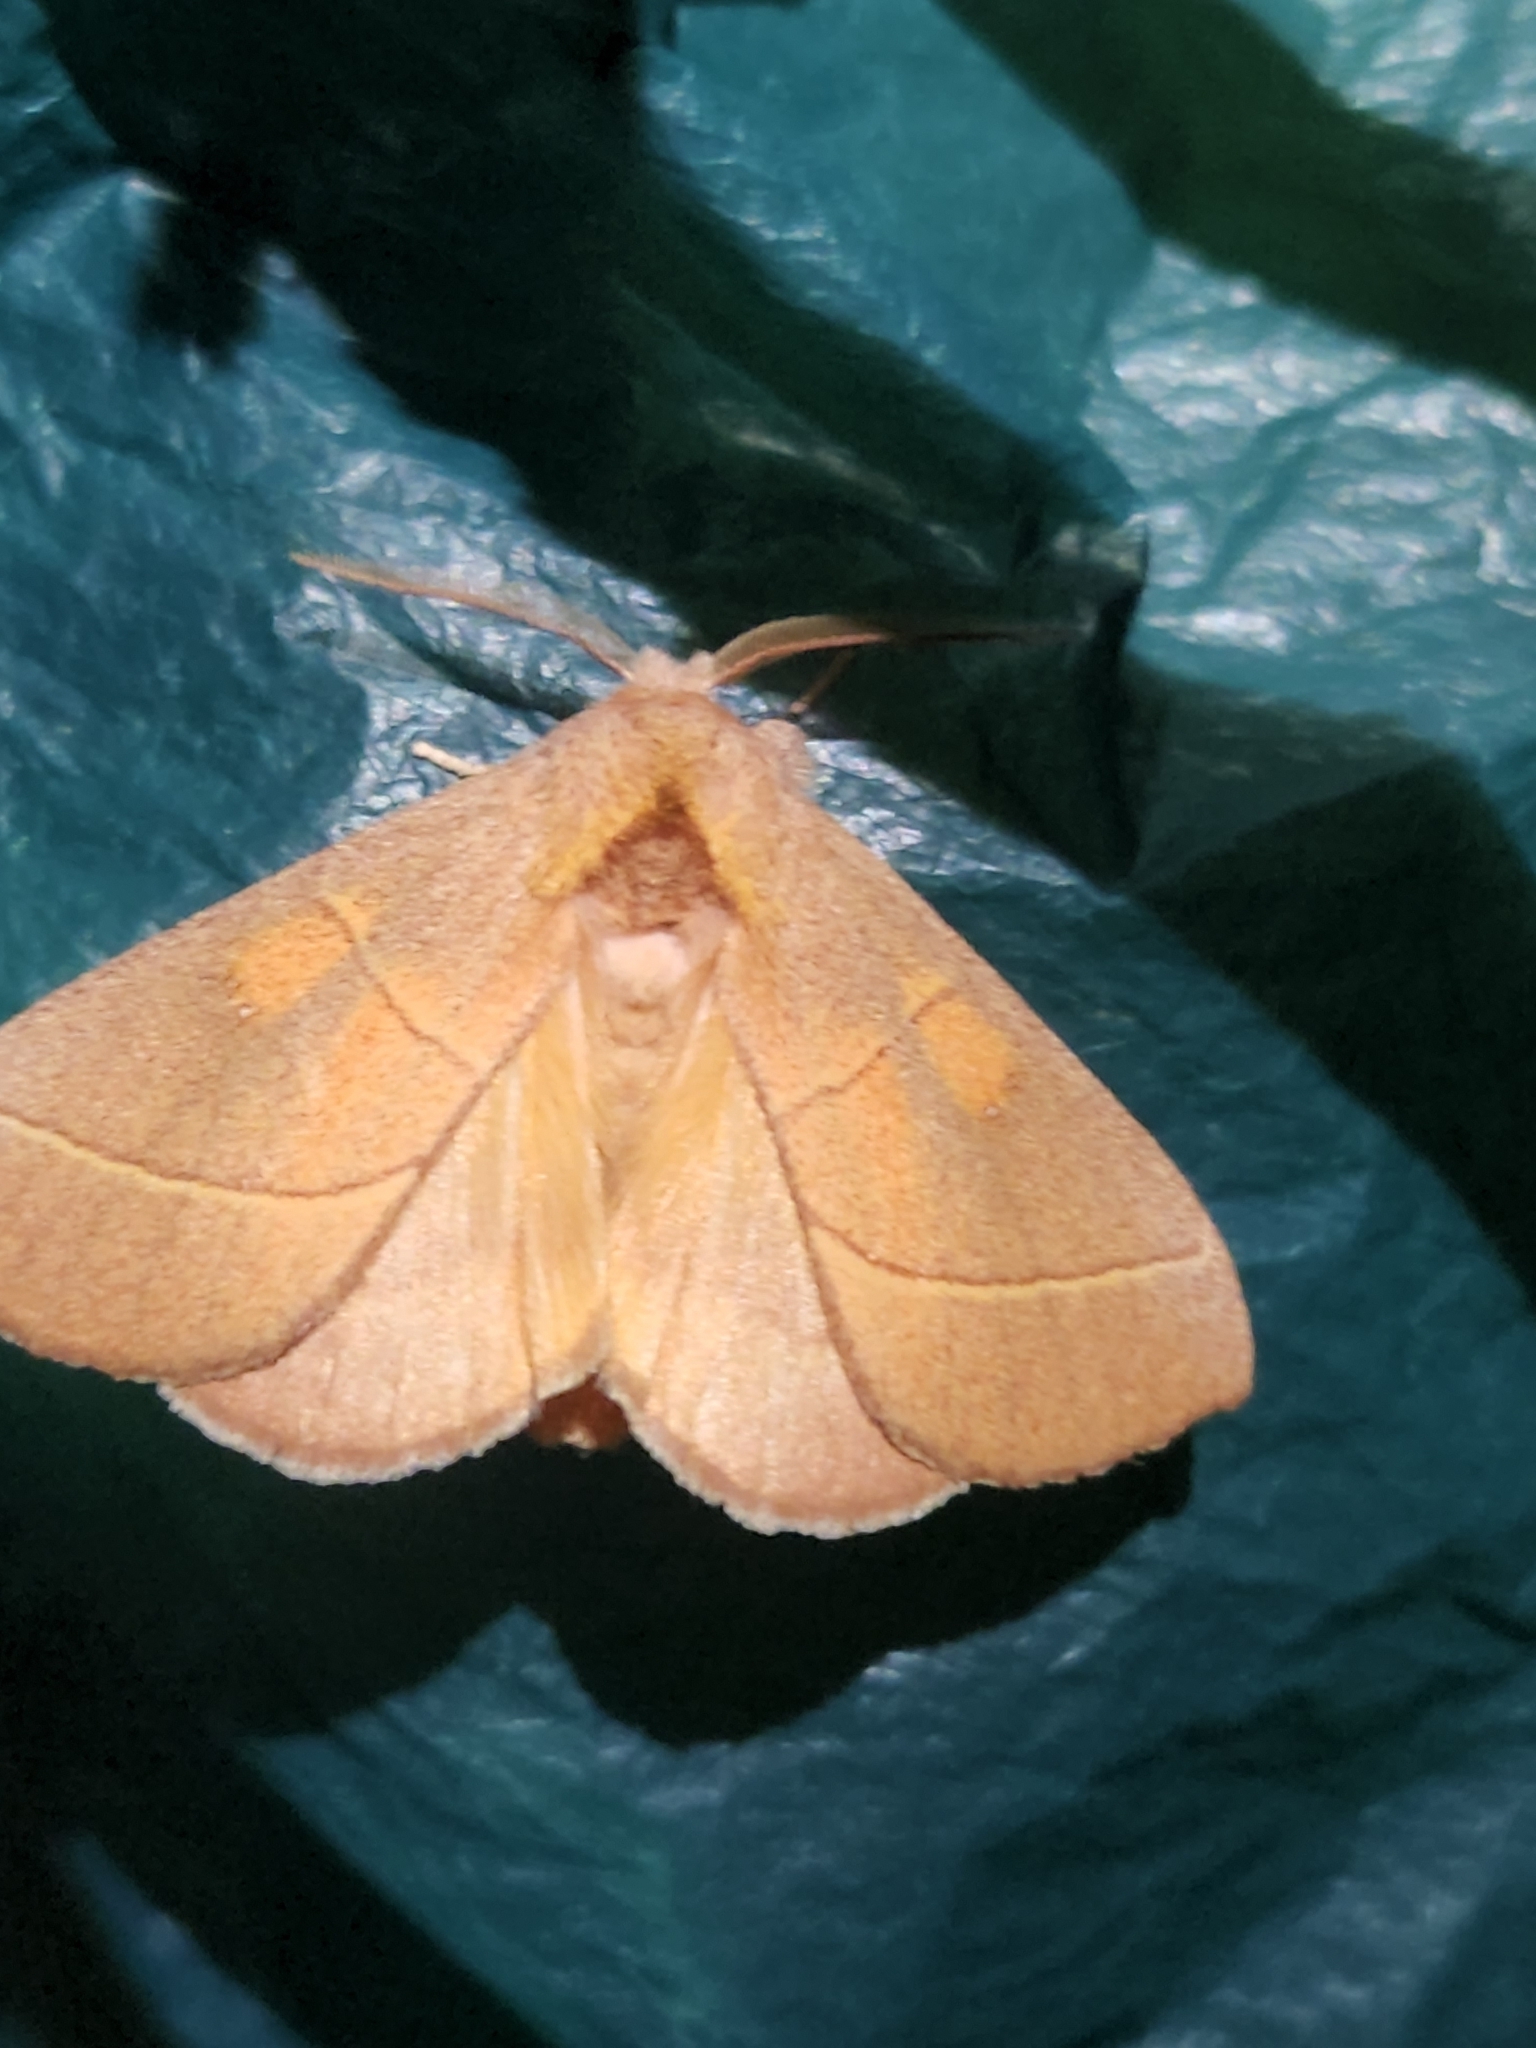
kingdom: Animalia
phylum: Arthropoda
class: Insecta
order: Lepidoptera
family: Notodontidae
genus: Nadata
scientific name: Nadata gibbosa
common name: White-dotted prominent
